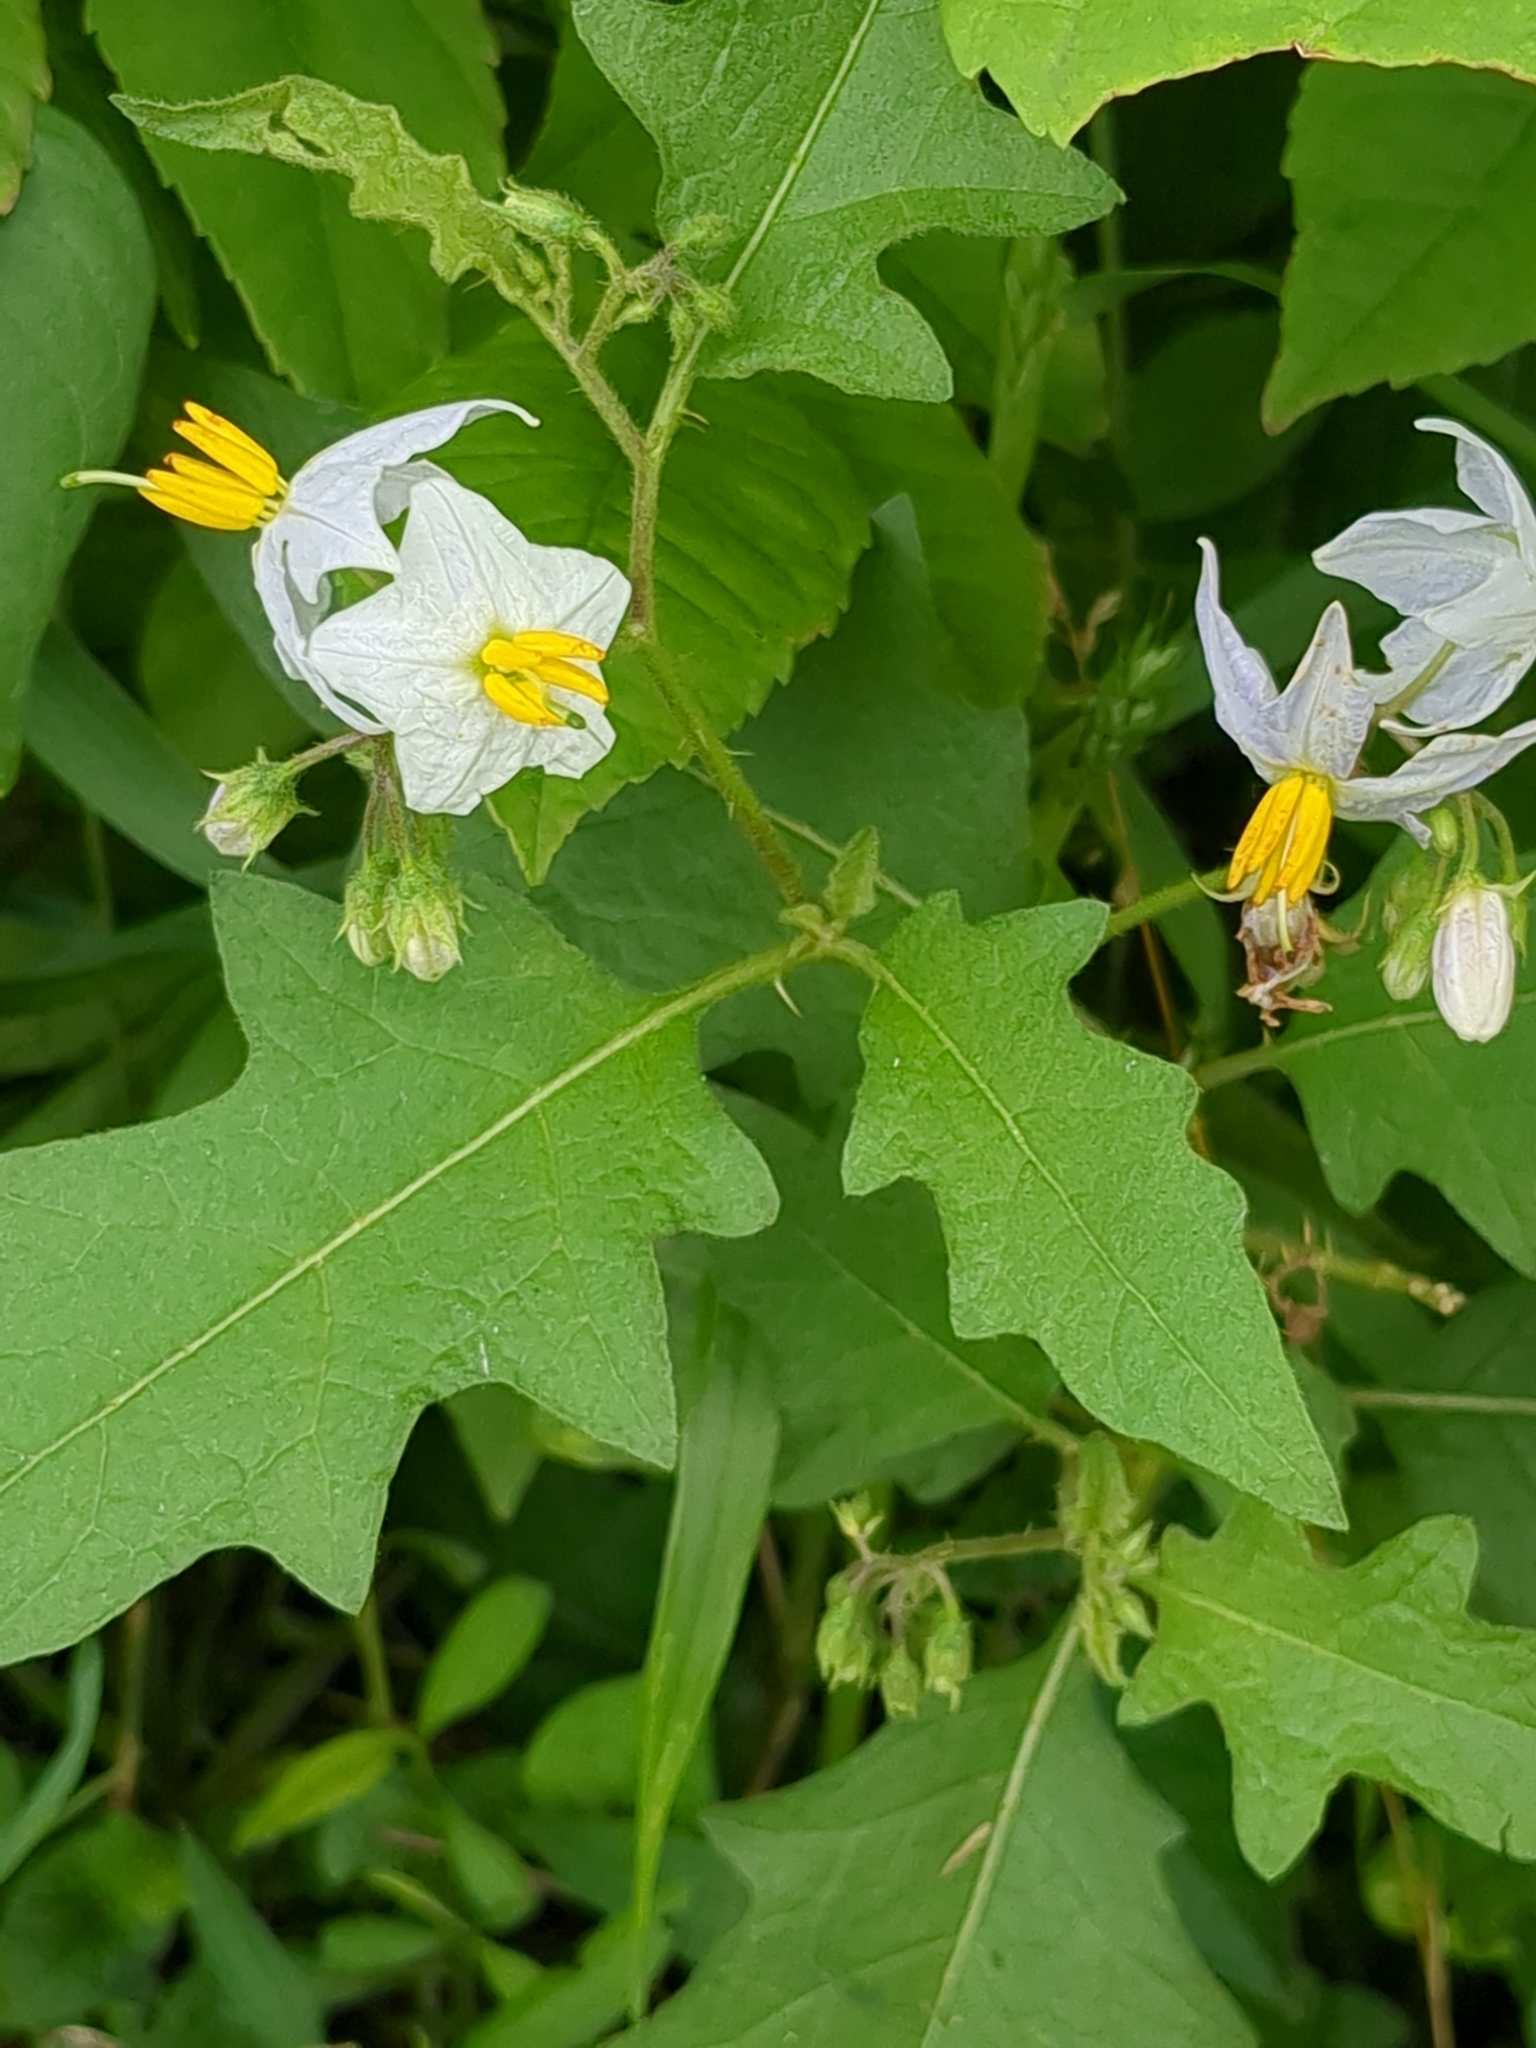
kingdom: Plantae
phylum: Tracheophyta
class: Magnoliopsida
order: Solanales
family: Solanaceae
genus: Solanum
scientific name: Solanum carolinense
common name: Horse-nettle
